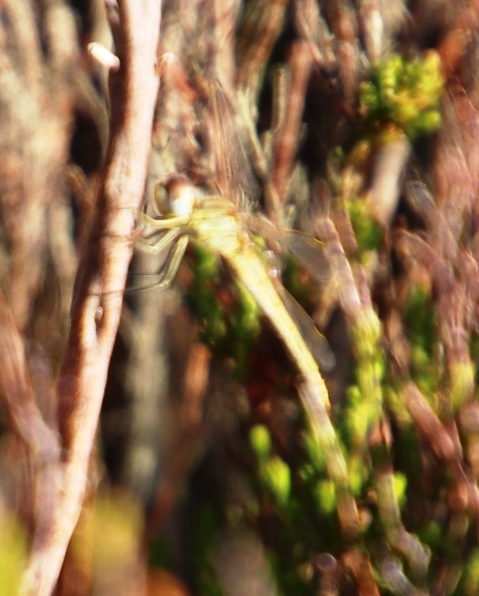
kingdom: Animalia
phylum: Arthropoda
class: Insecta
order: Odonata
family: Libellulidae
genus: Sympetrum
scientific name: Sympetrum fonscolombii
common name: Red-veined darter
